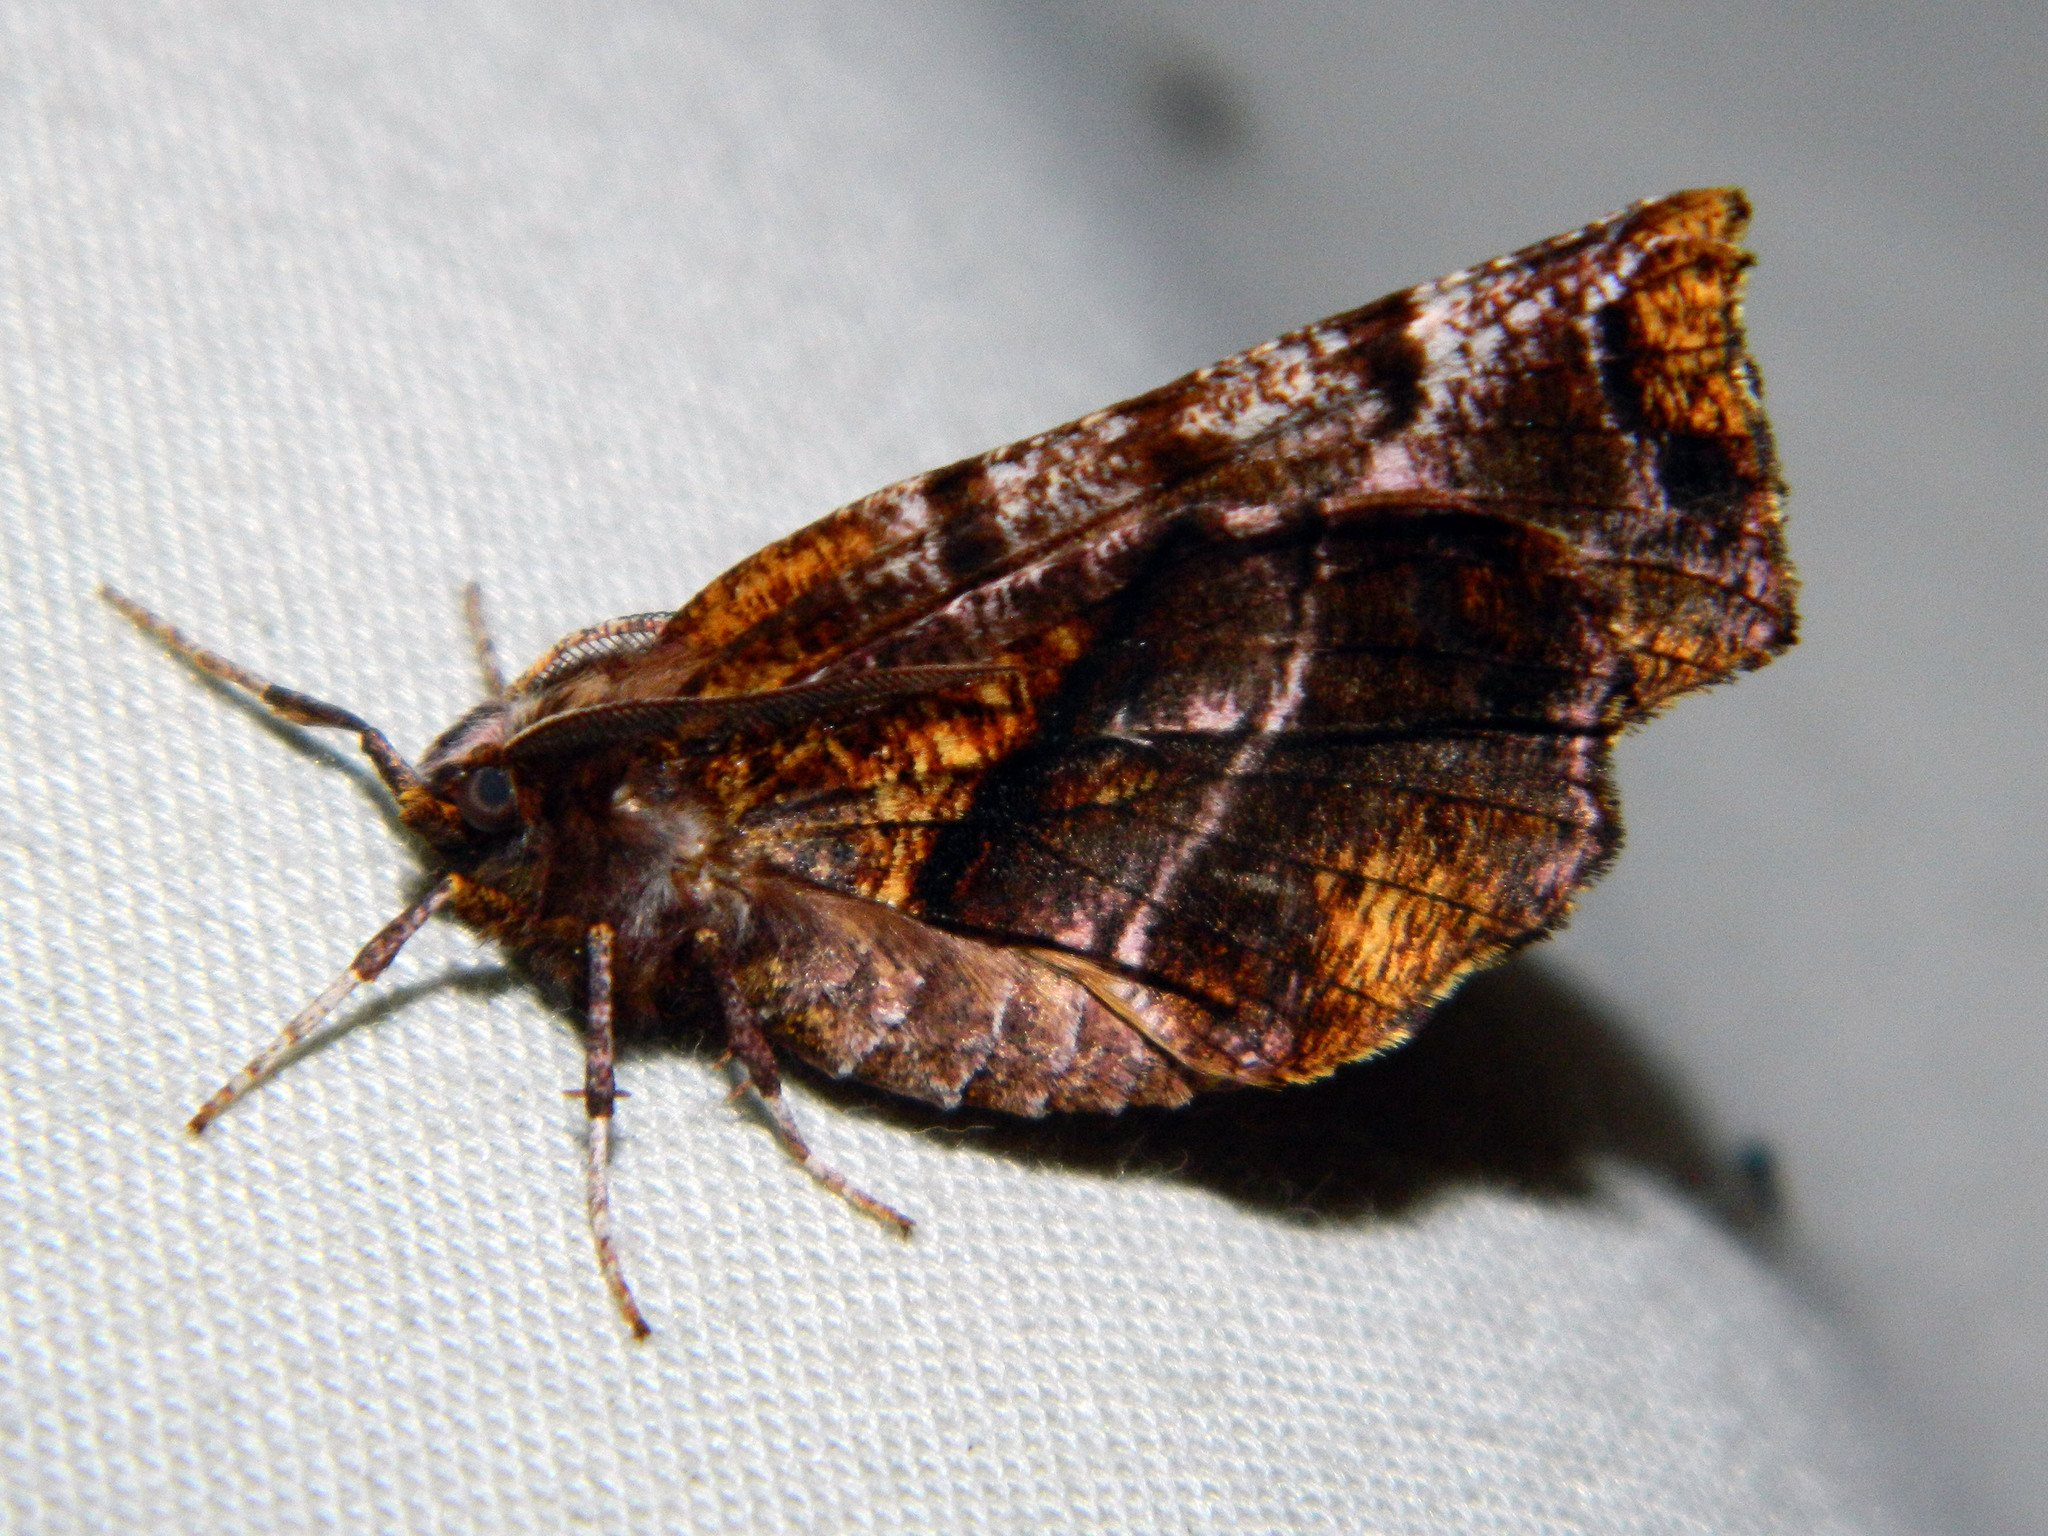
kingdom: Animalia
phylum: Arthropoda
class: Insecta
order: Lepidoptera
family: Geometridae
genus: Selenia
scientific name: Selenia alciphearia
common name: Brown-tipped thorn
